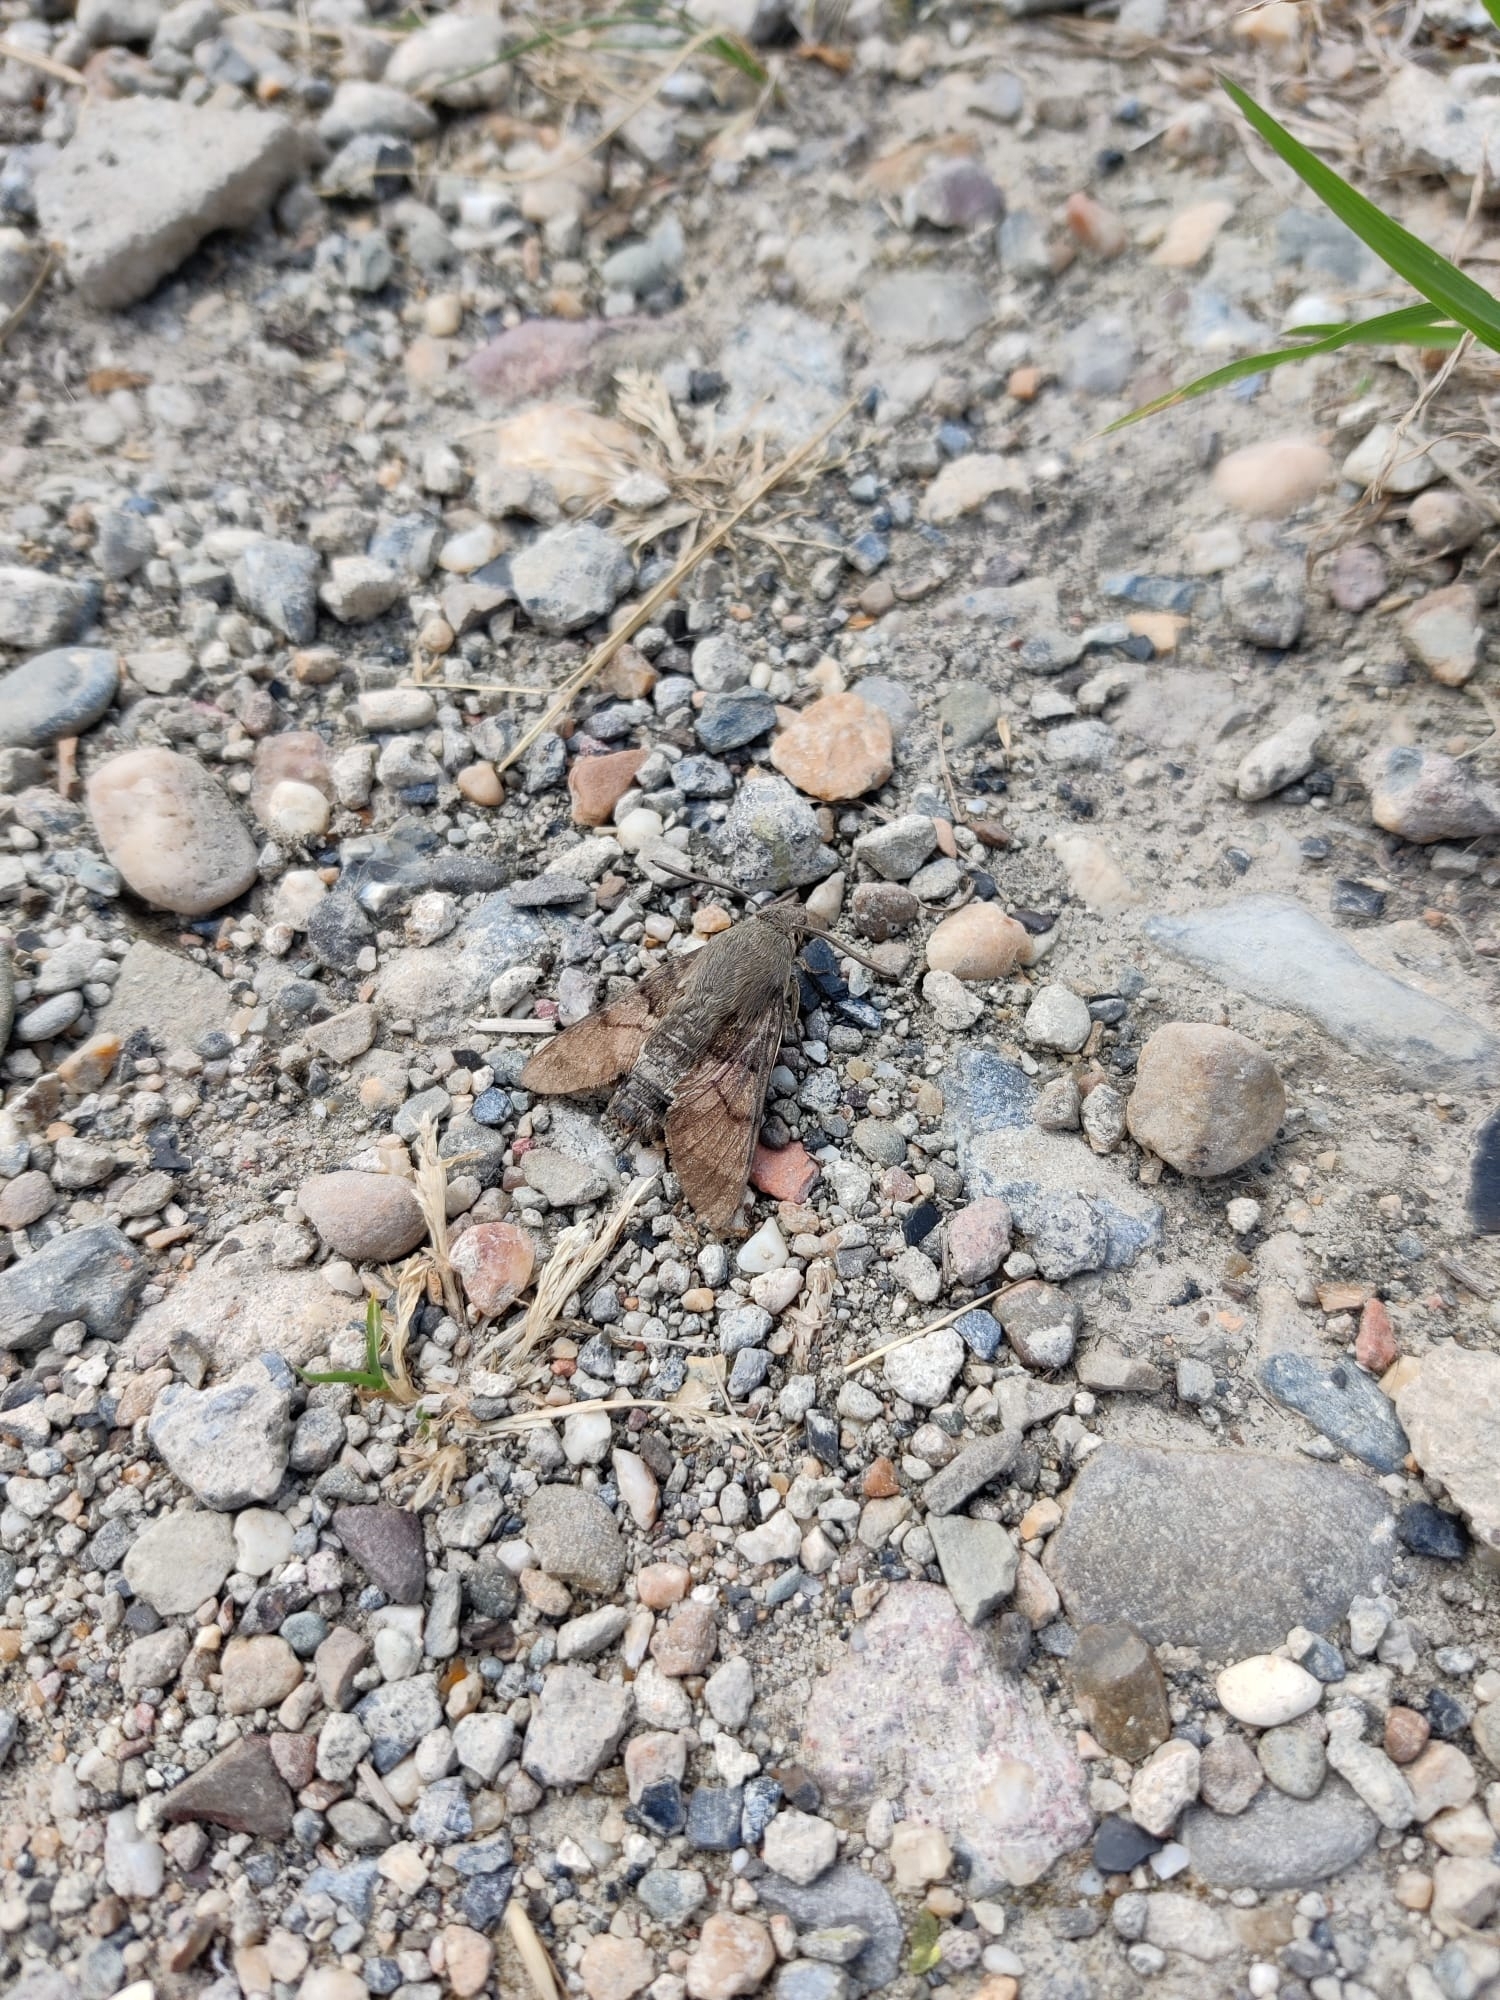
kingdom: Animalia
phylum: Arthropoda
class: Insecta
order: Lepidoptera
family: Sphingidae
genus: Macroglossum
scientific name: Macroglossum stellatarum
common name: Humming-bird hawk-moth
